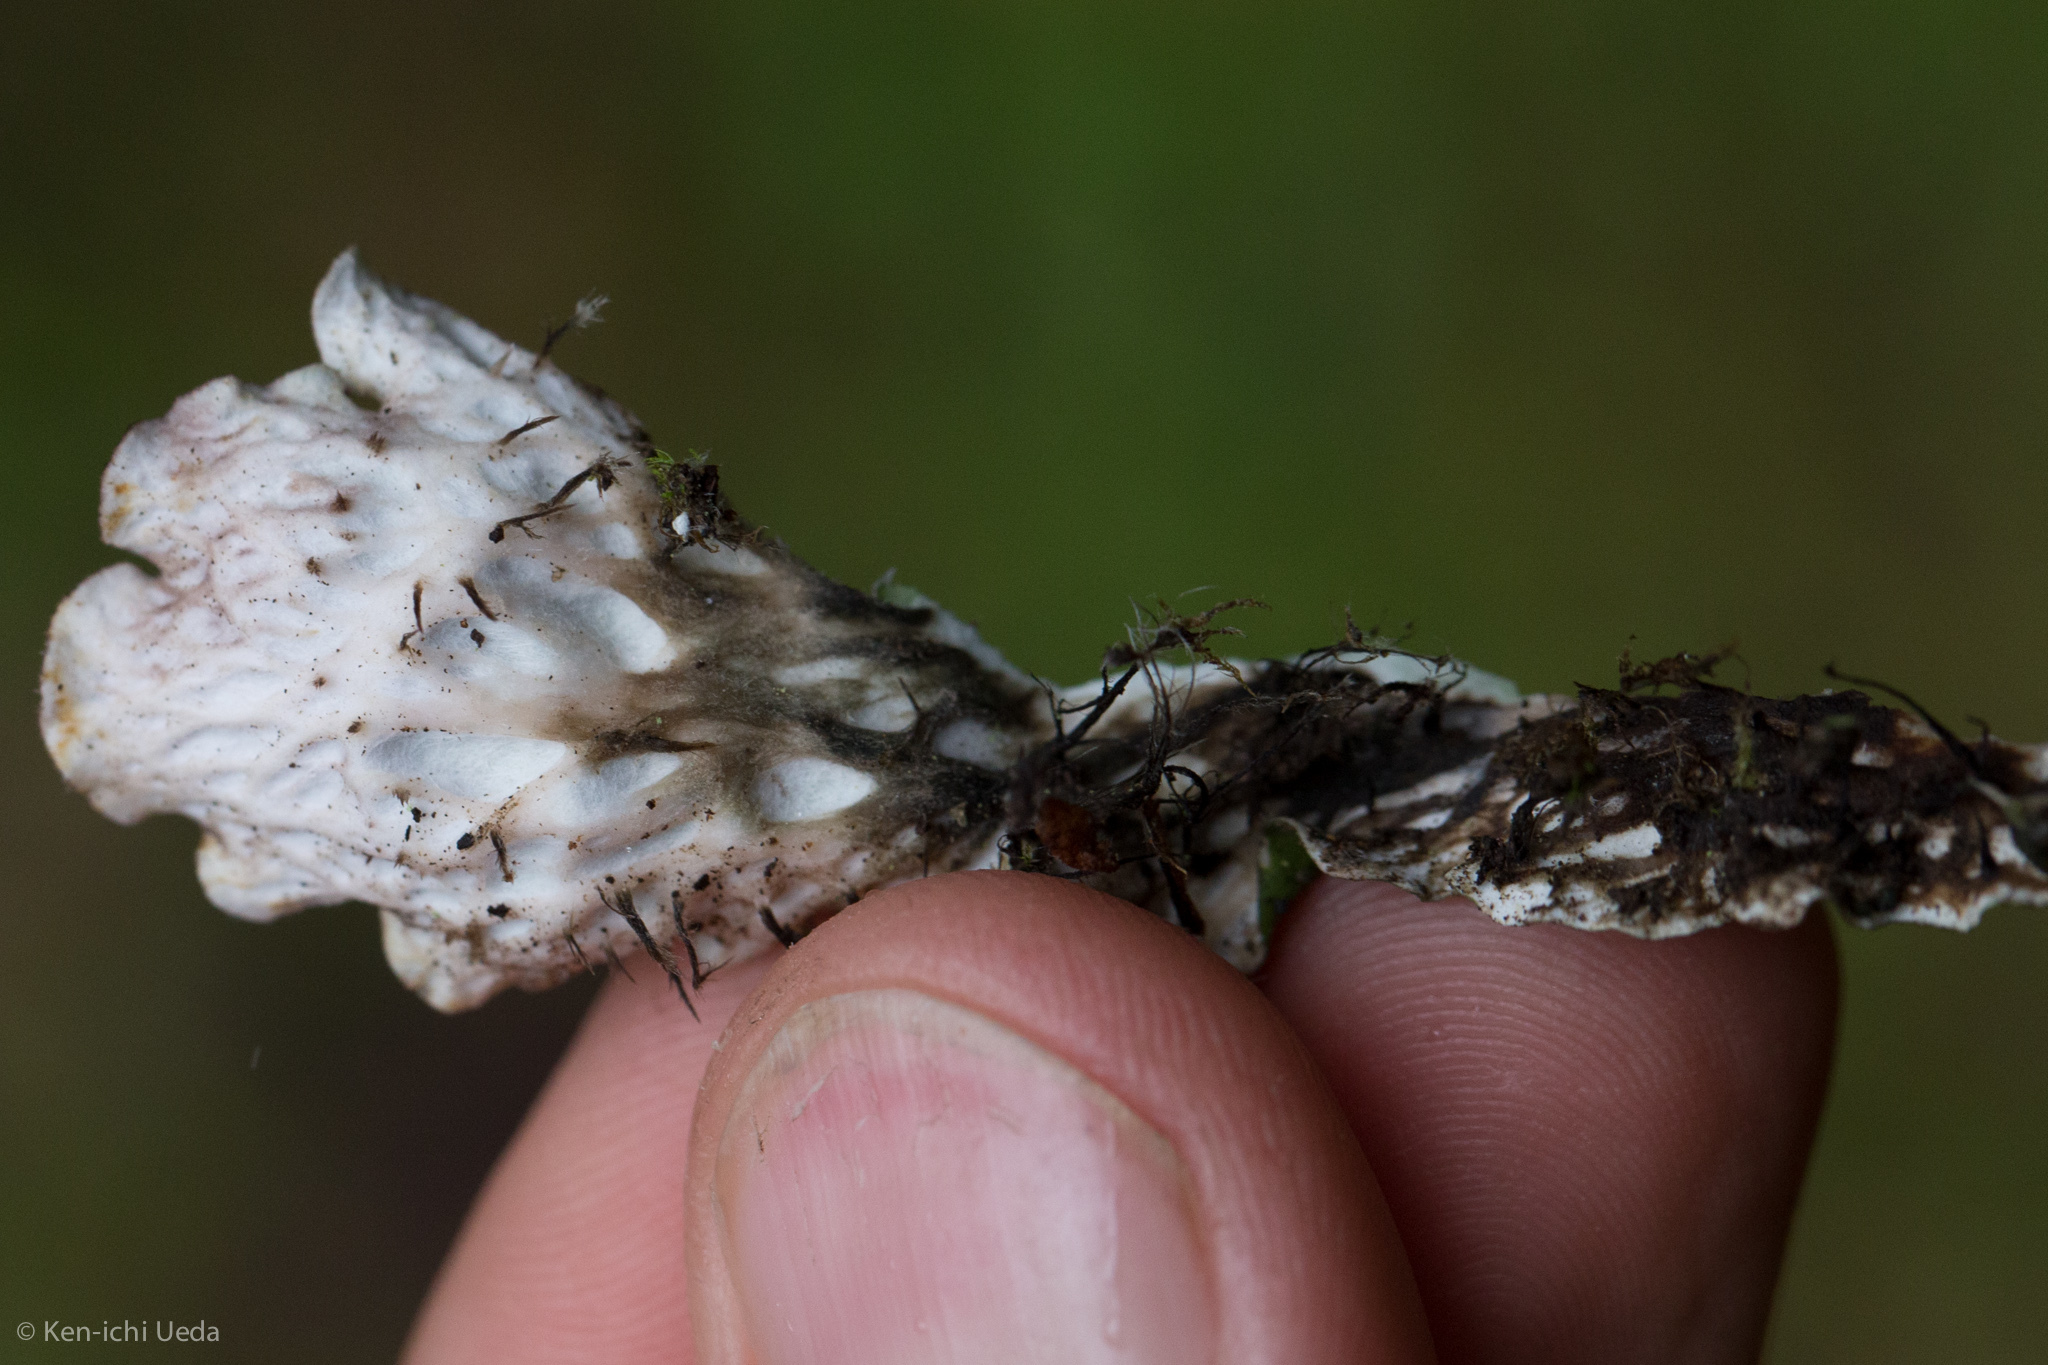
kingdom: Fungi
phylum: Ascomycota
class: Lecanoromycetes
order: Peltigerales
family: Peltigeraceae
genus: Peltigera
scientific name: Peltigera leucophlebia
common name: Ruffled freckle pelt lichen
